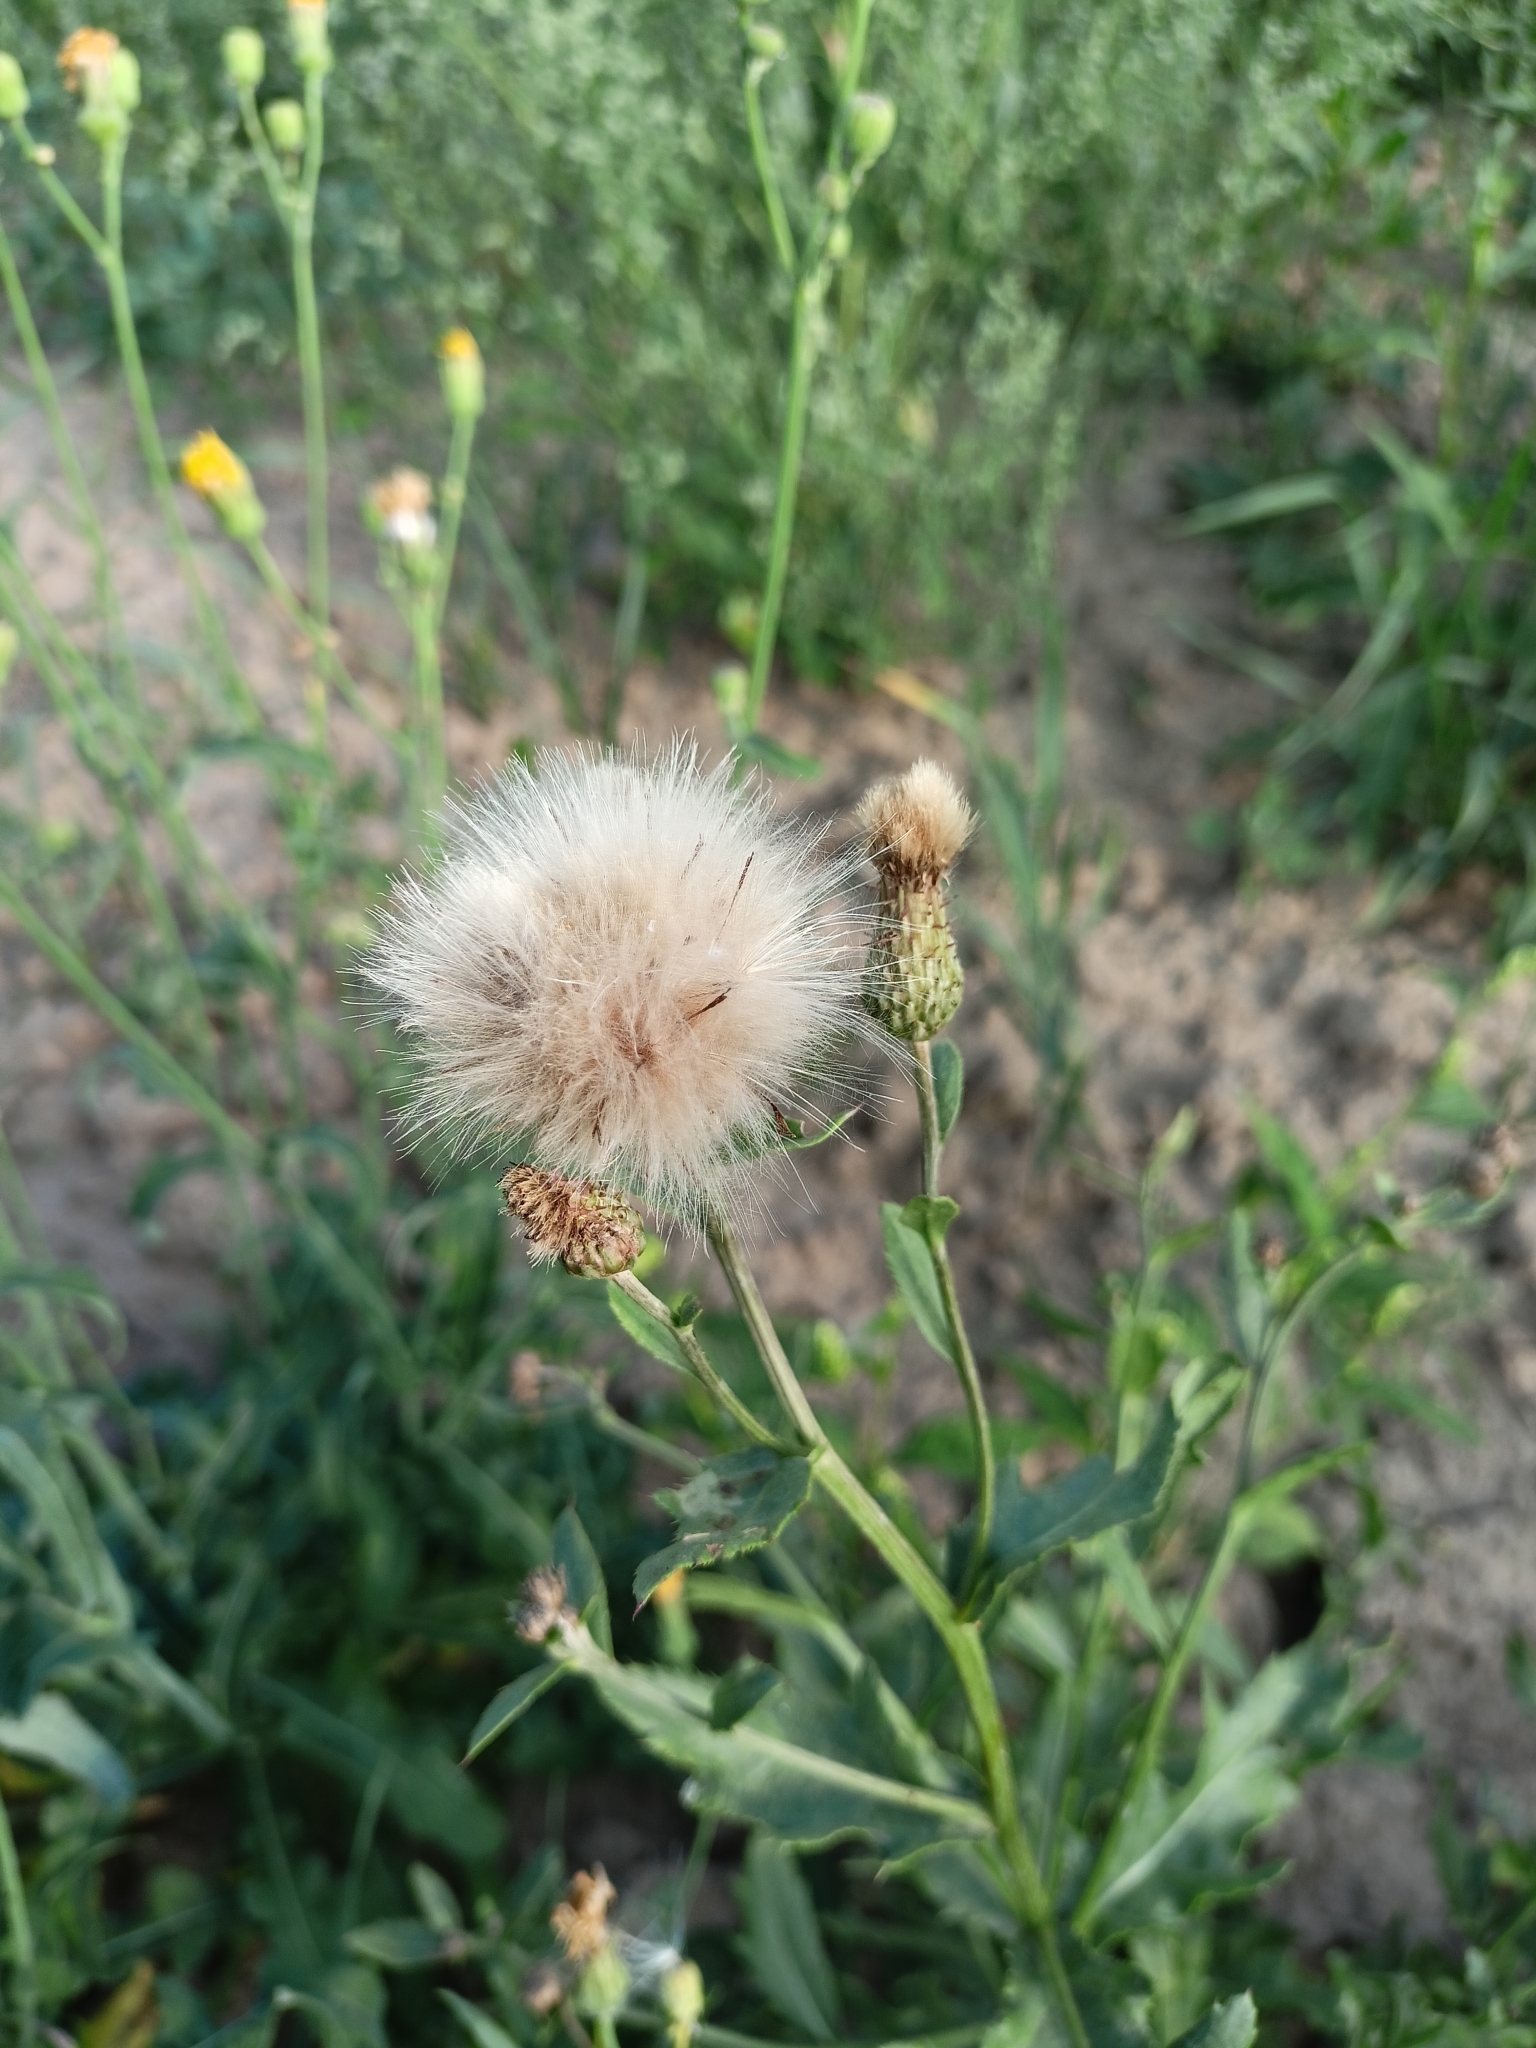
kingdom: Plantae
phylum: Tracheophyta
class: Magnoliopsida
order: Asterales
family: Asteraceae
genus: Cirsium
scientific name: Cirsium arvense
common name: Creeping thistle
